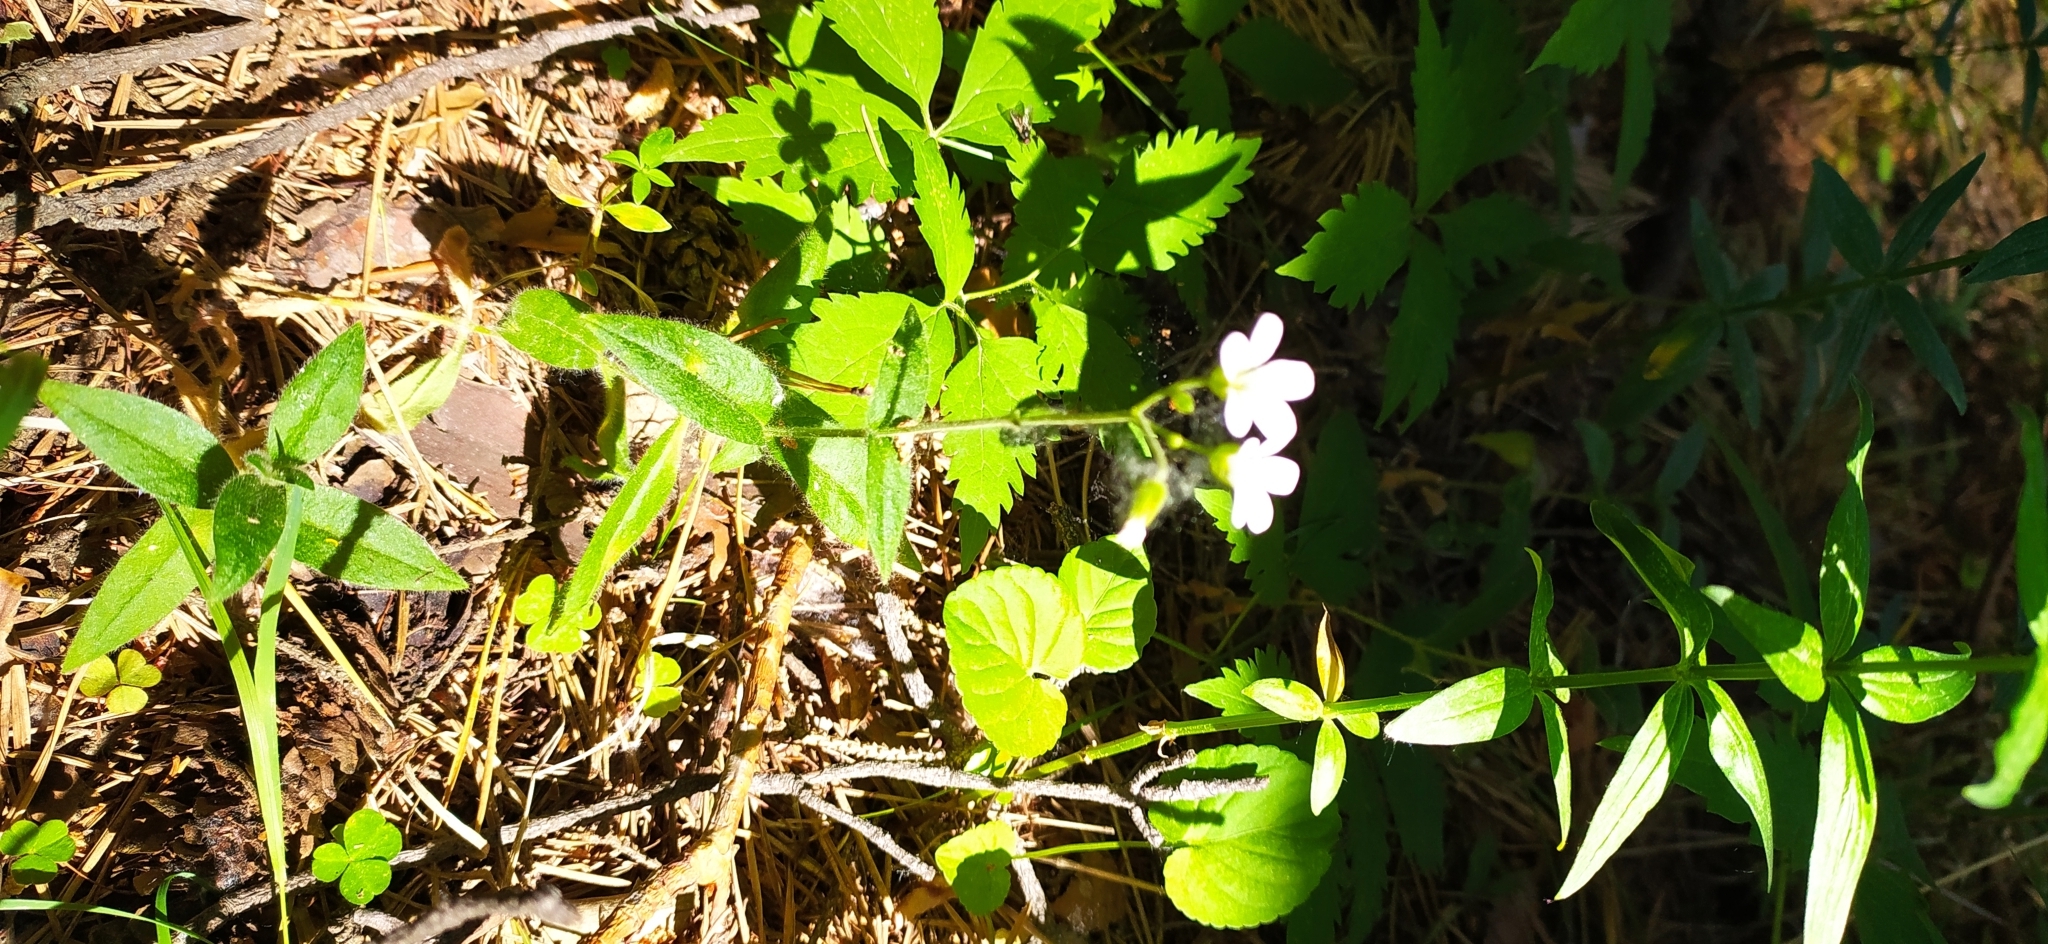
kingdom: Plantae
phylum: Tracheophyta
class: Magnoliopsida
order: Caryophyllales
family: Caryophyllaceae
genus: Cerastium
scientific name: Cerastium pauciflorum
